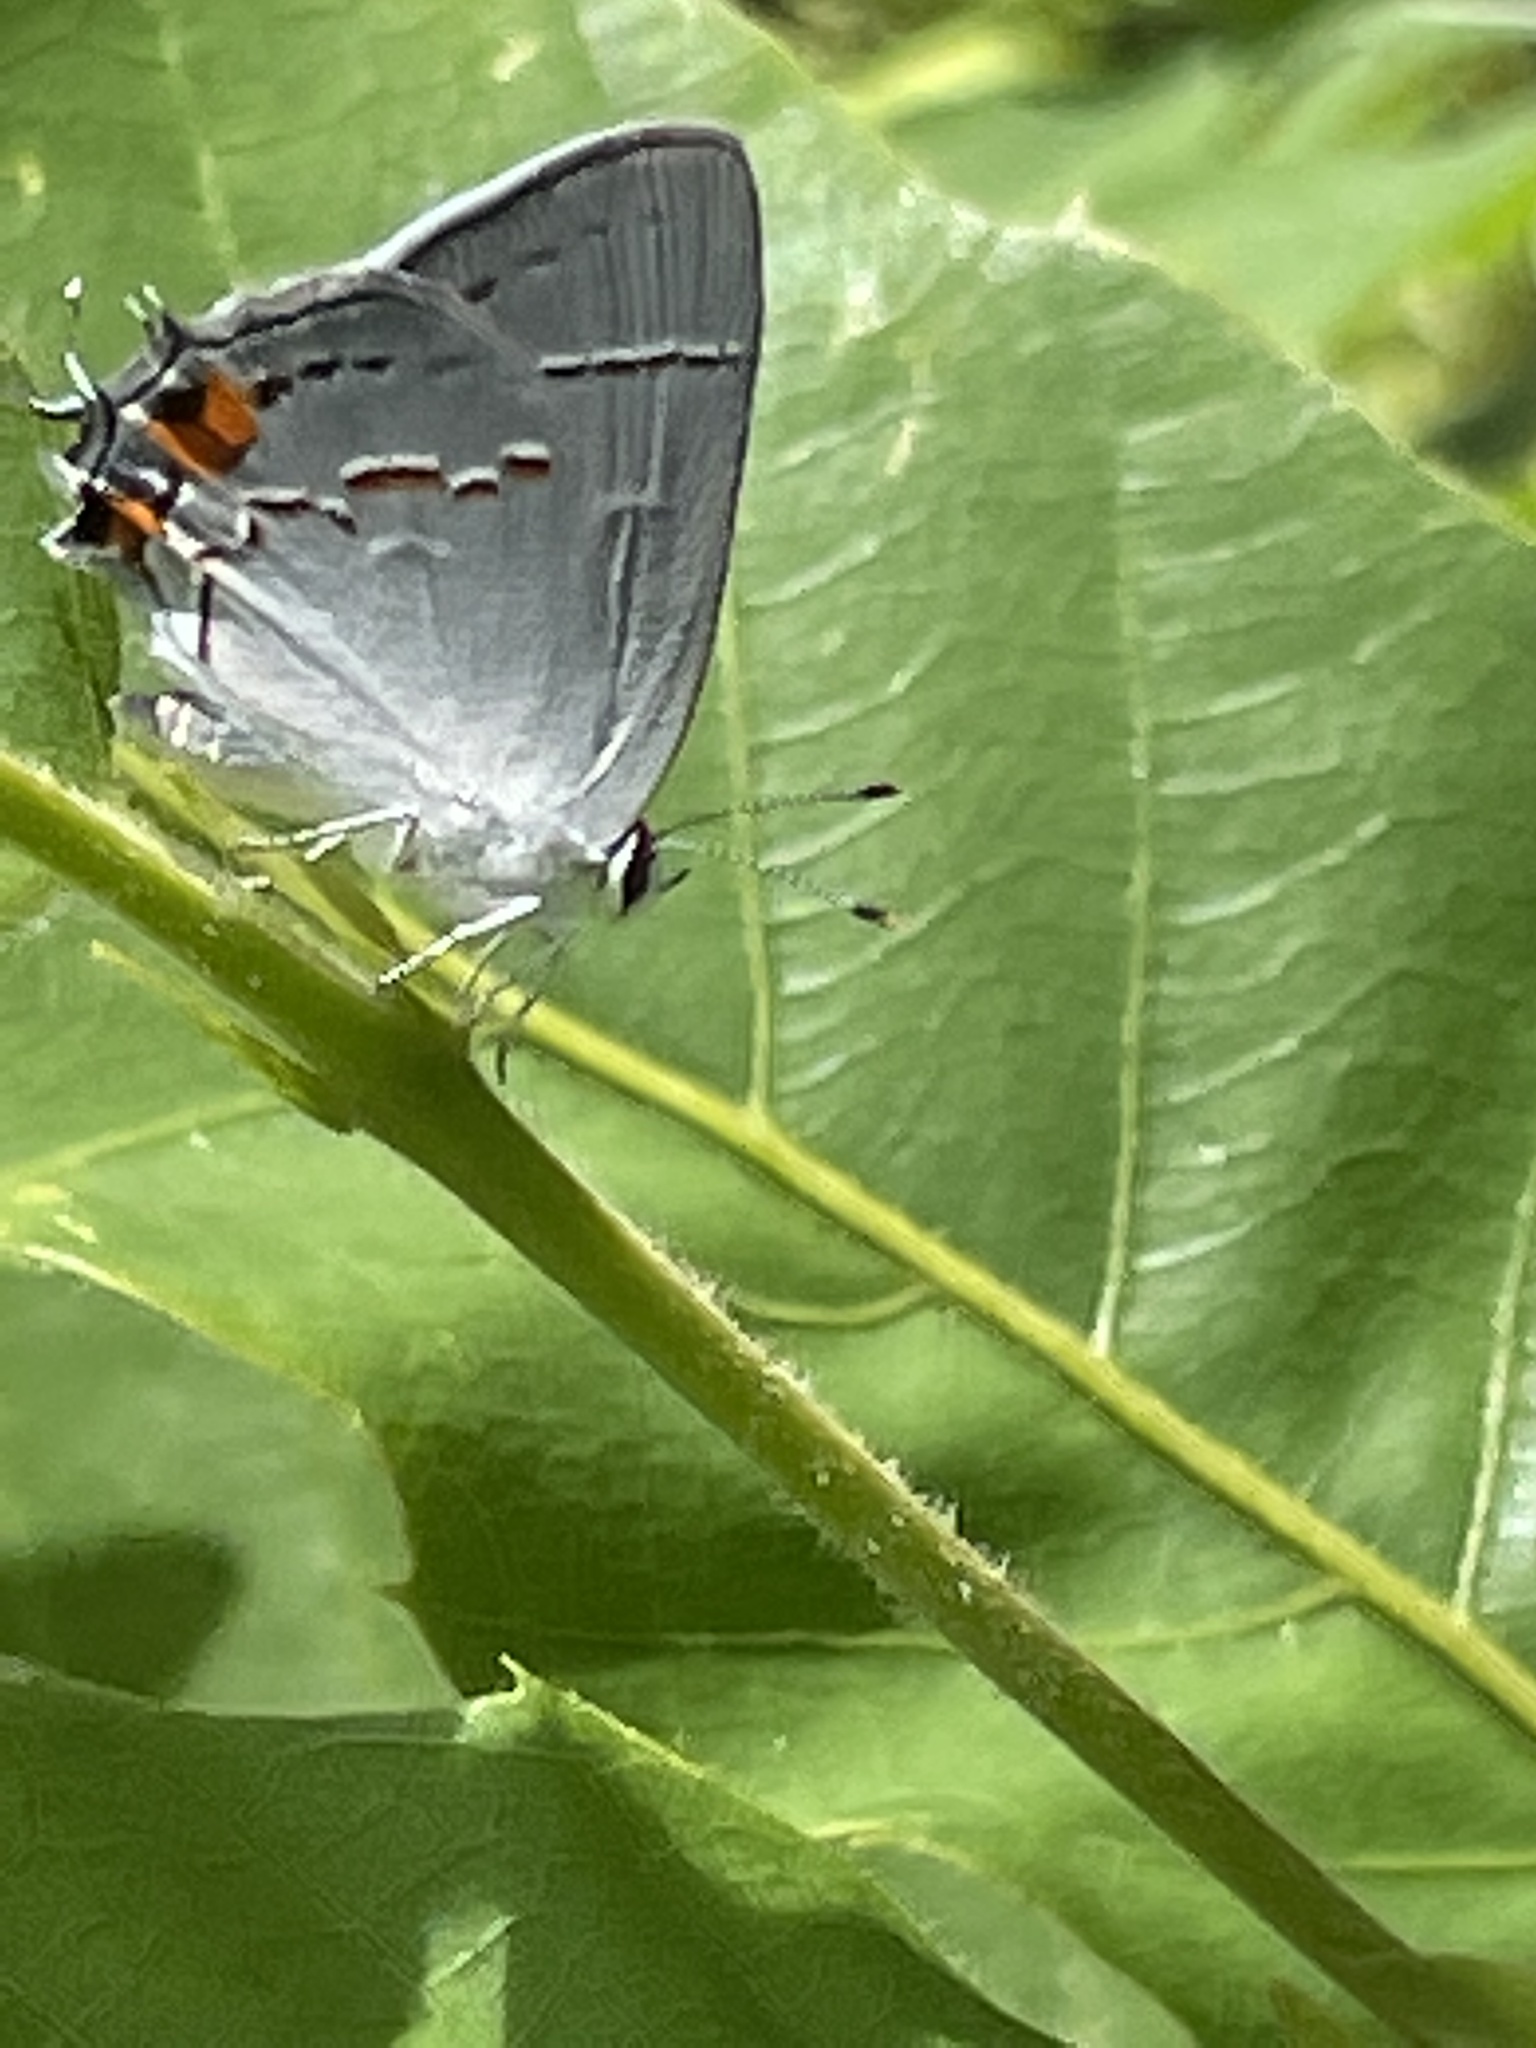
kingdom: Animalia
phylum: Arthropoda
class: Insecta
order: Lepidoptera
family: Lycaenidae
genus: Strymon
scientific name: Strymon melinus
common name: Gray hairstreak
